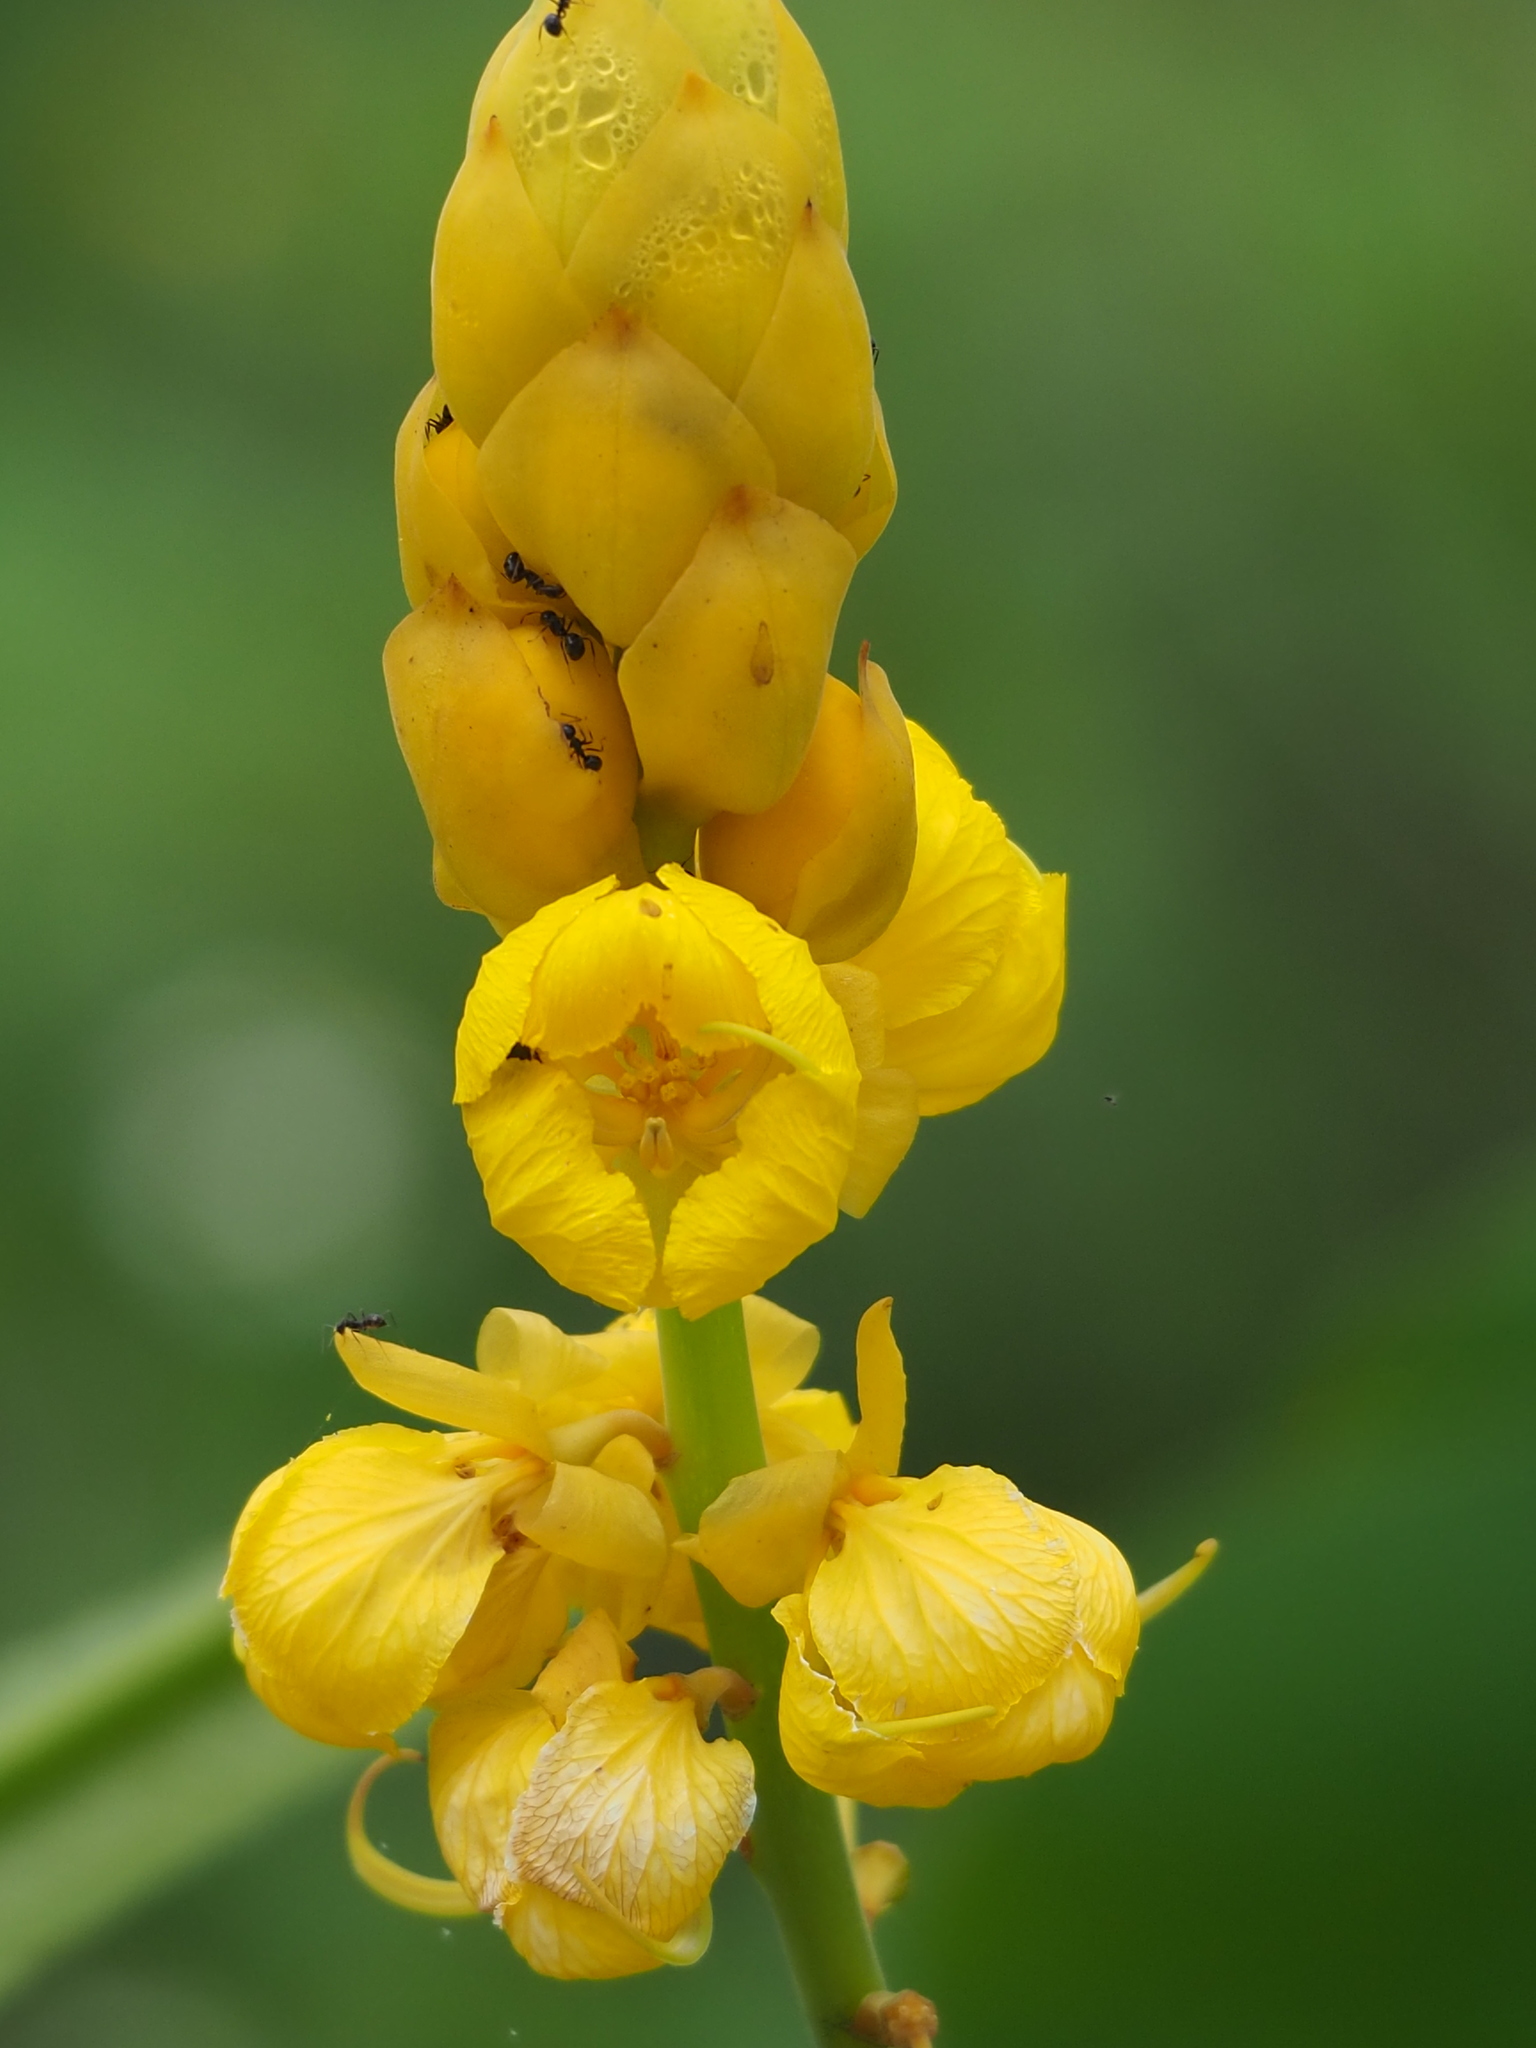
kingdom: Plantae
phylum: Tracheophyta
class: Magnoliopsida
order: Fabales
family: Fabaceae
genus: Senna
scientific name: Senna alata
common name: Emperor's candlesticks
